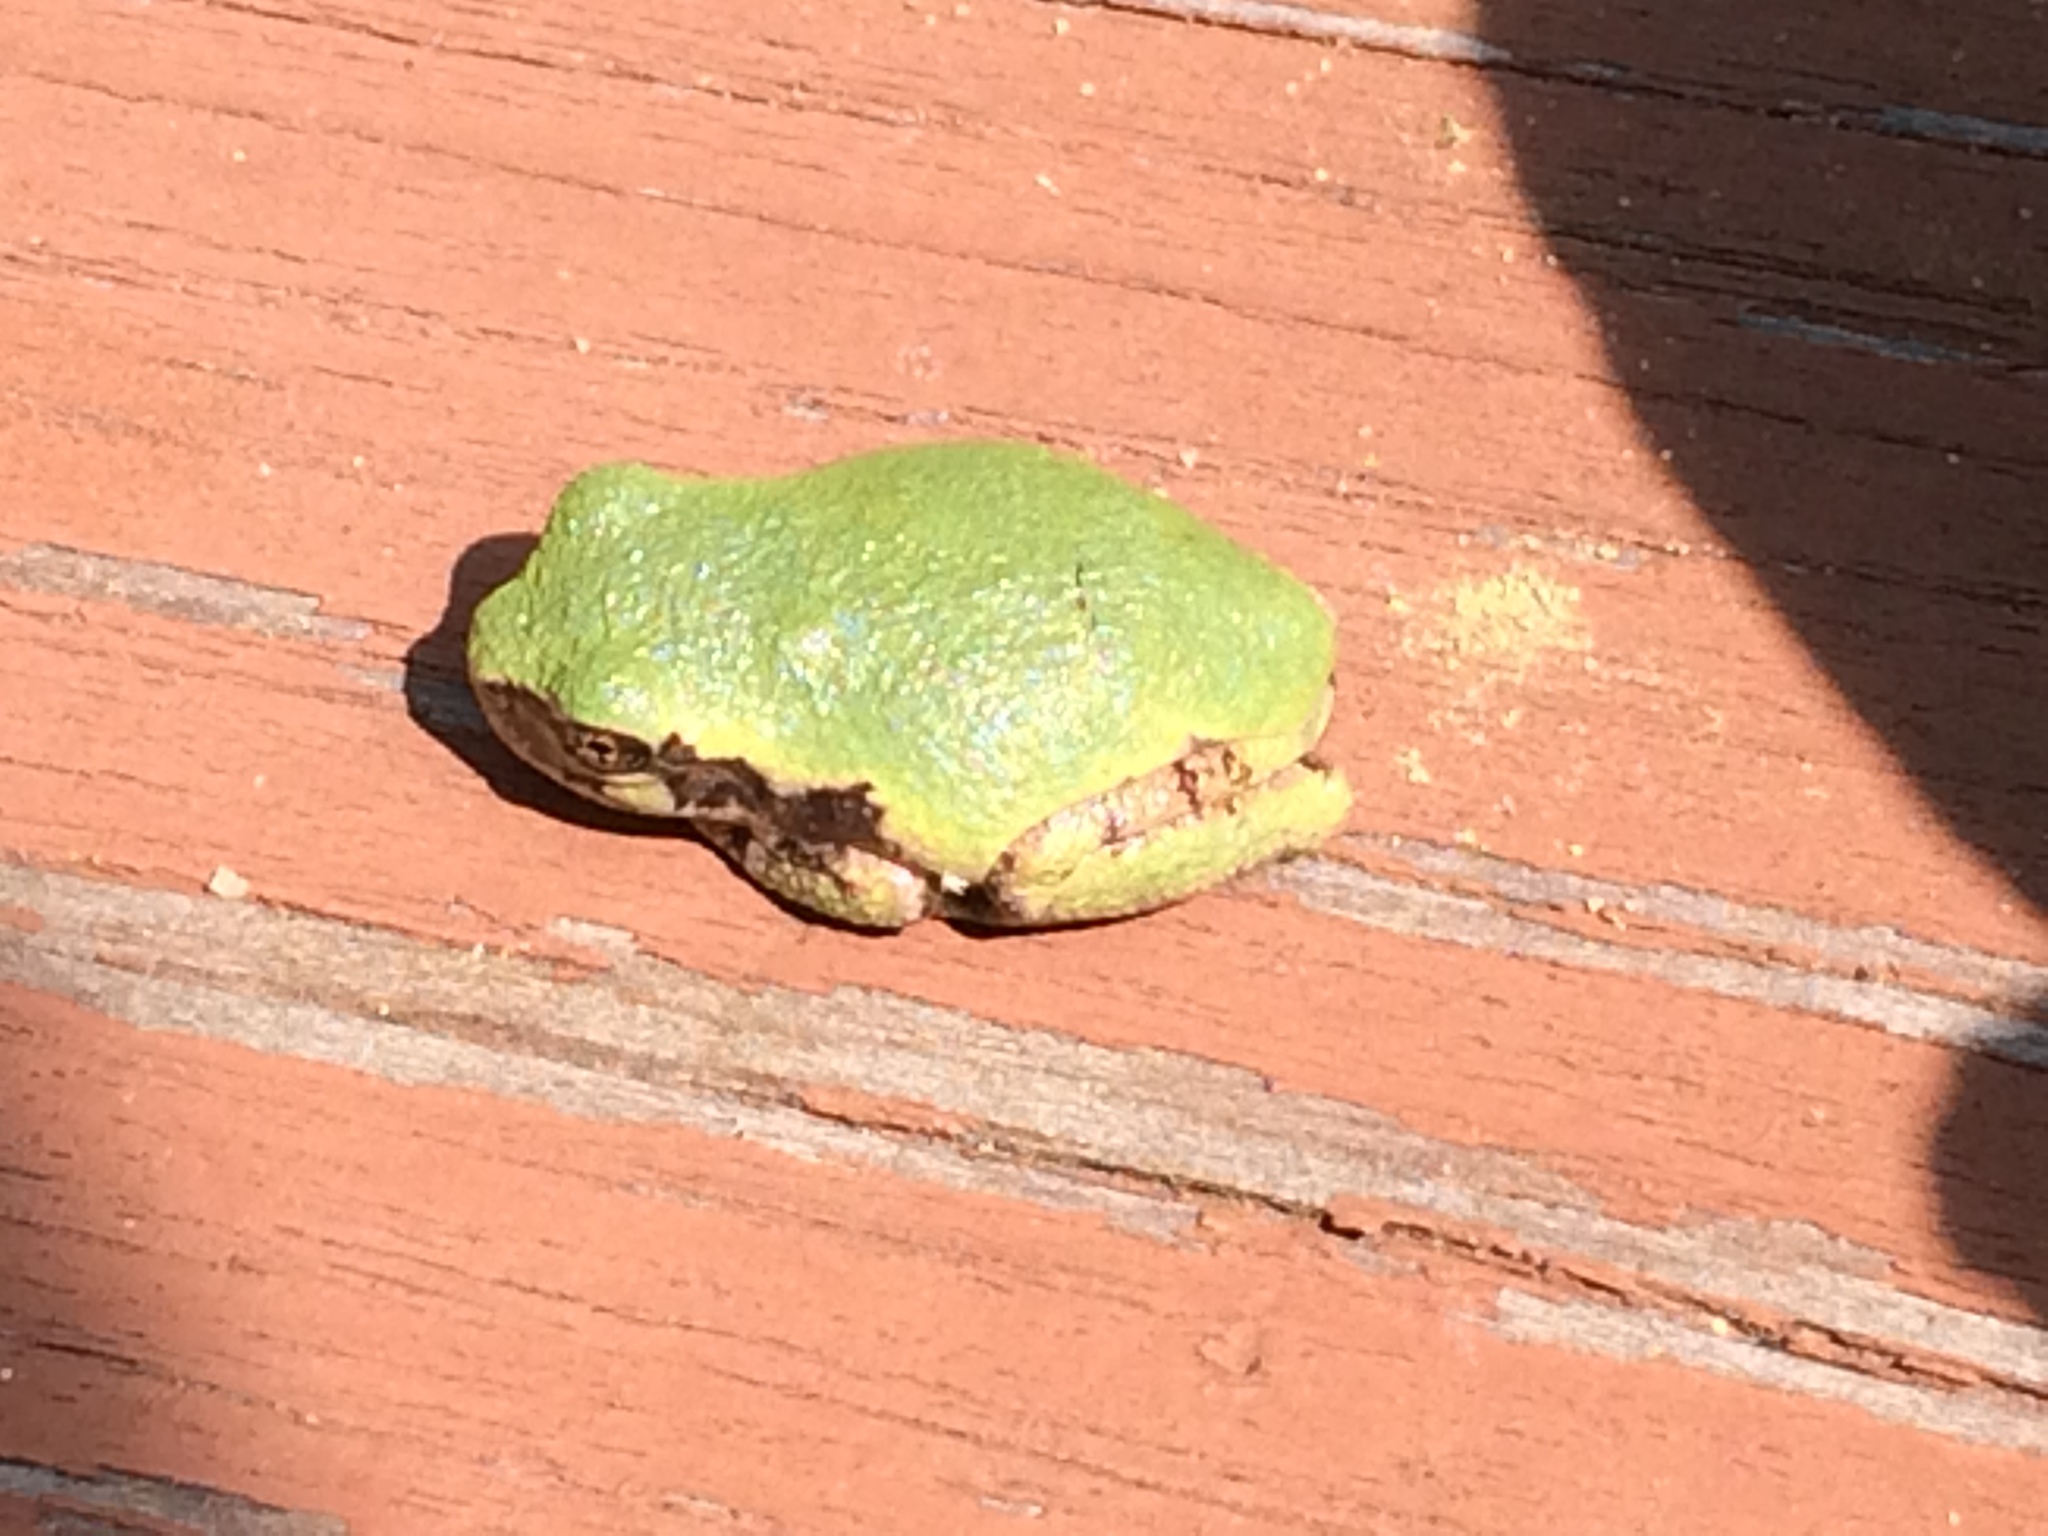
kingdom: Animalia
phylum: Chordata
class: Amphibia
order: Anura
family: Hylidae
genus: Dryophytes
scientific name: Dryophytes versicolor
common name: Gray treefrog
